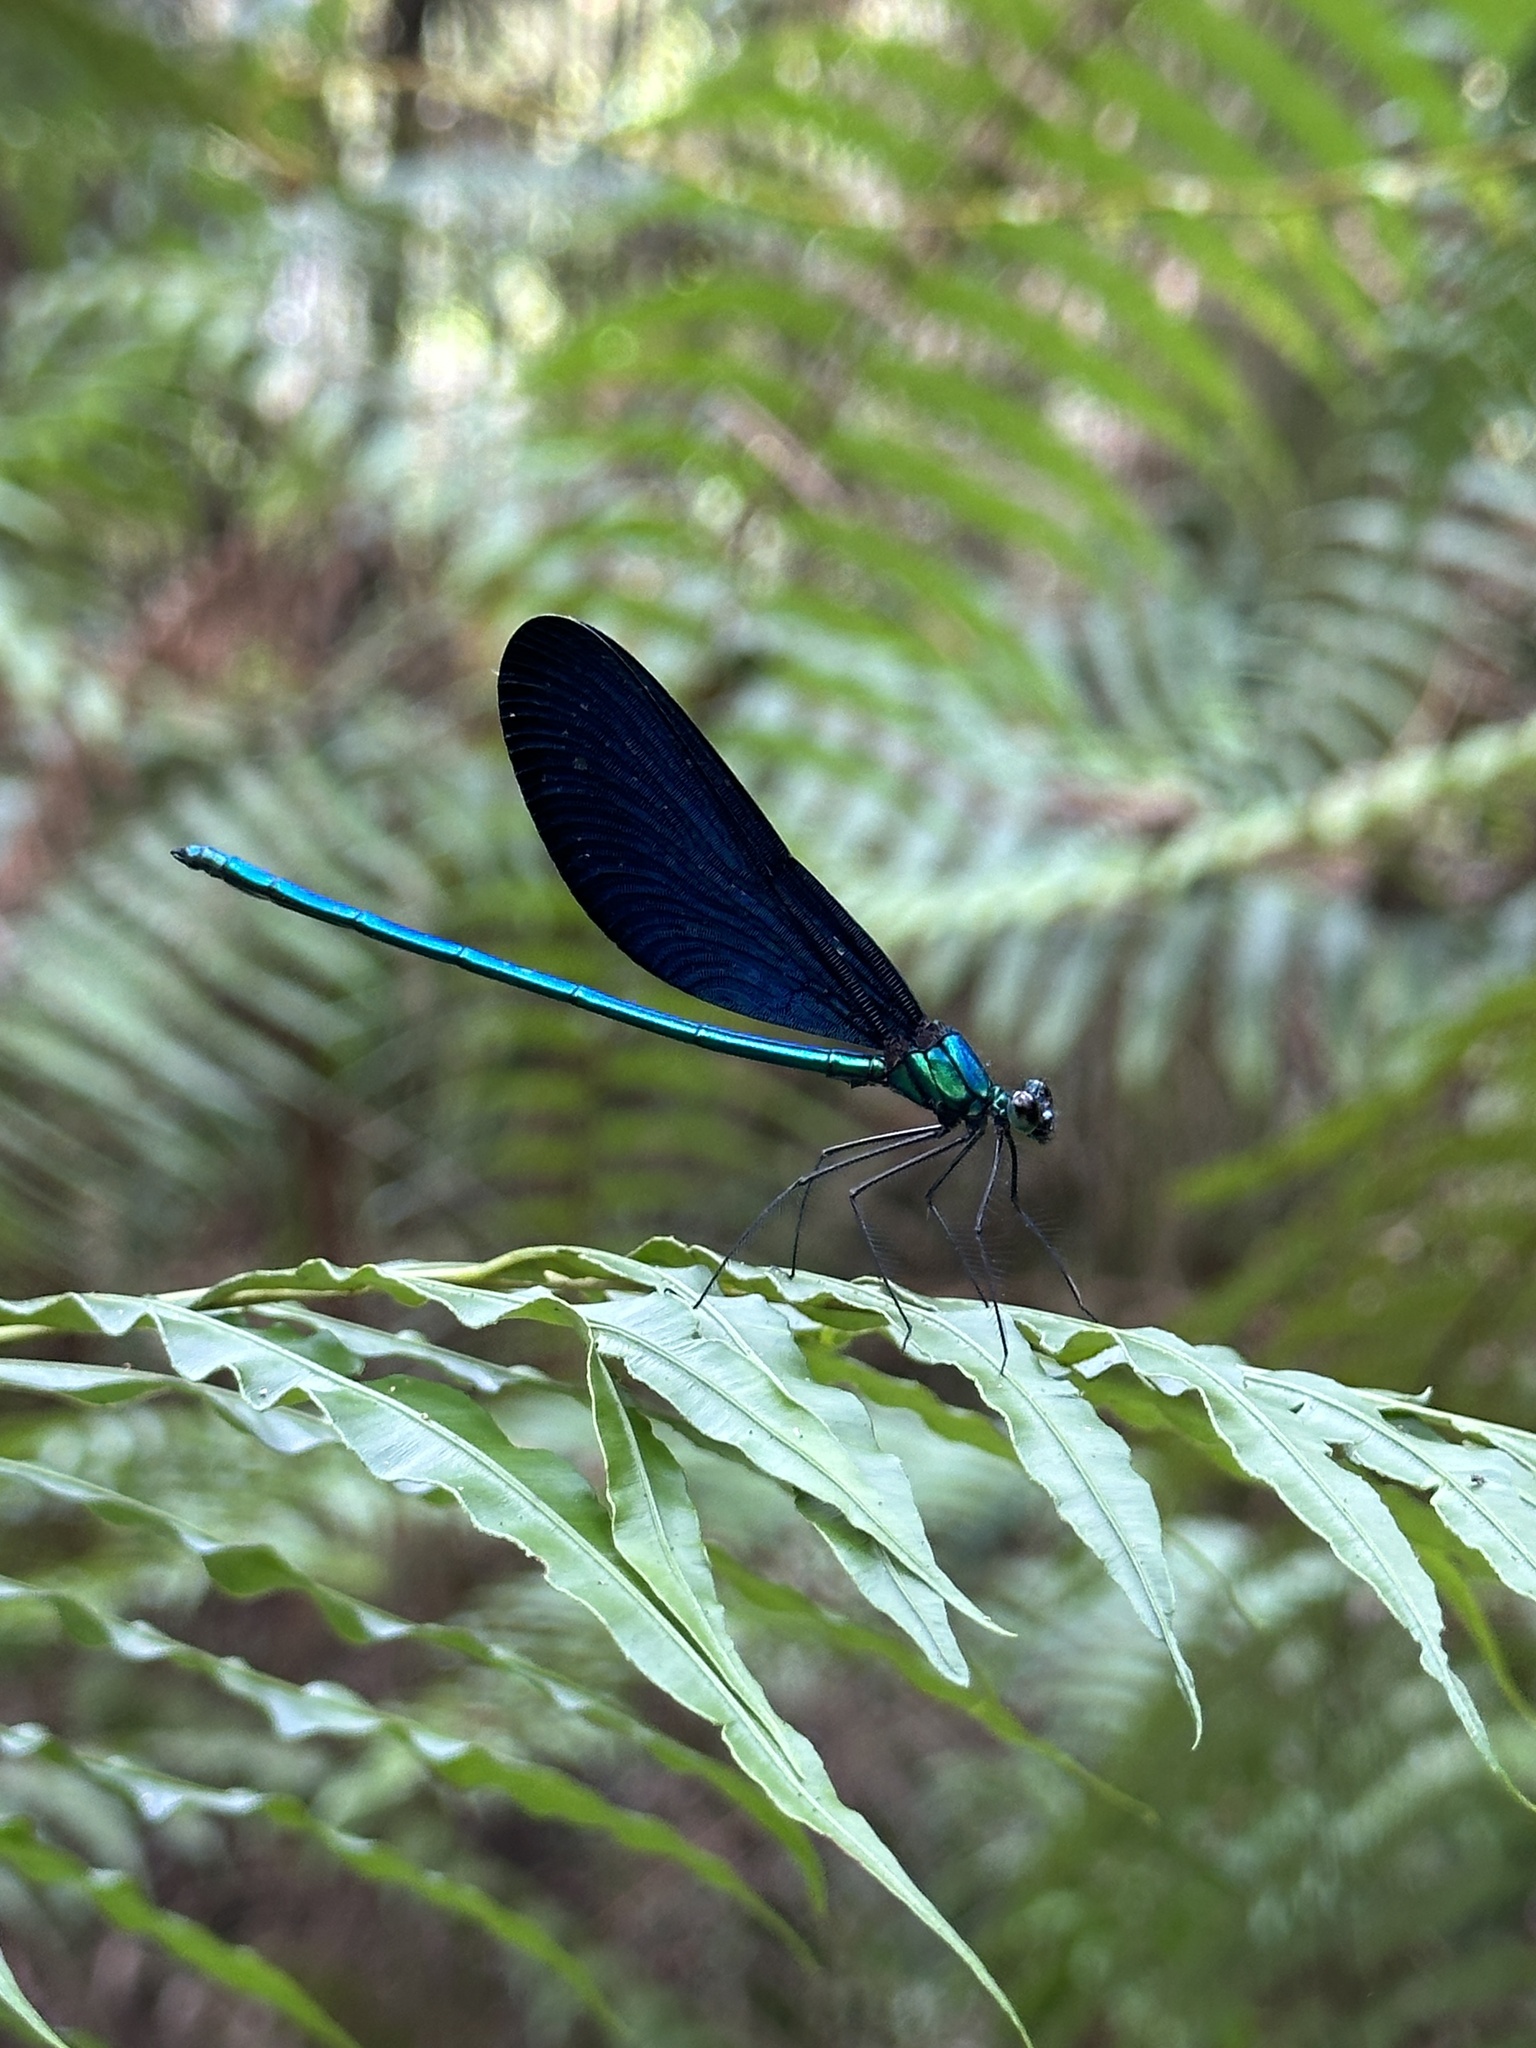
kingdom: Animalia
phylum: Arthropoda
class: Insecta
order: Odonata
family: Calopterygidae
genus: Matrona
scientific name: Matrona cyanoptera
